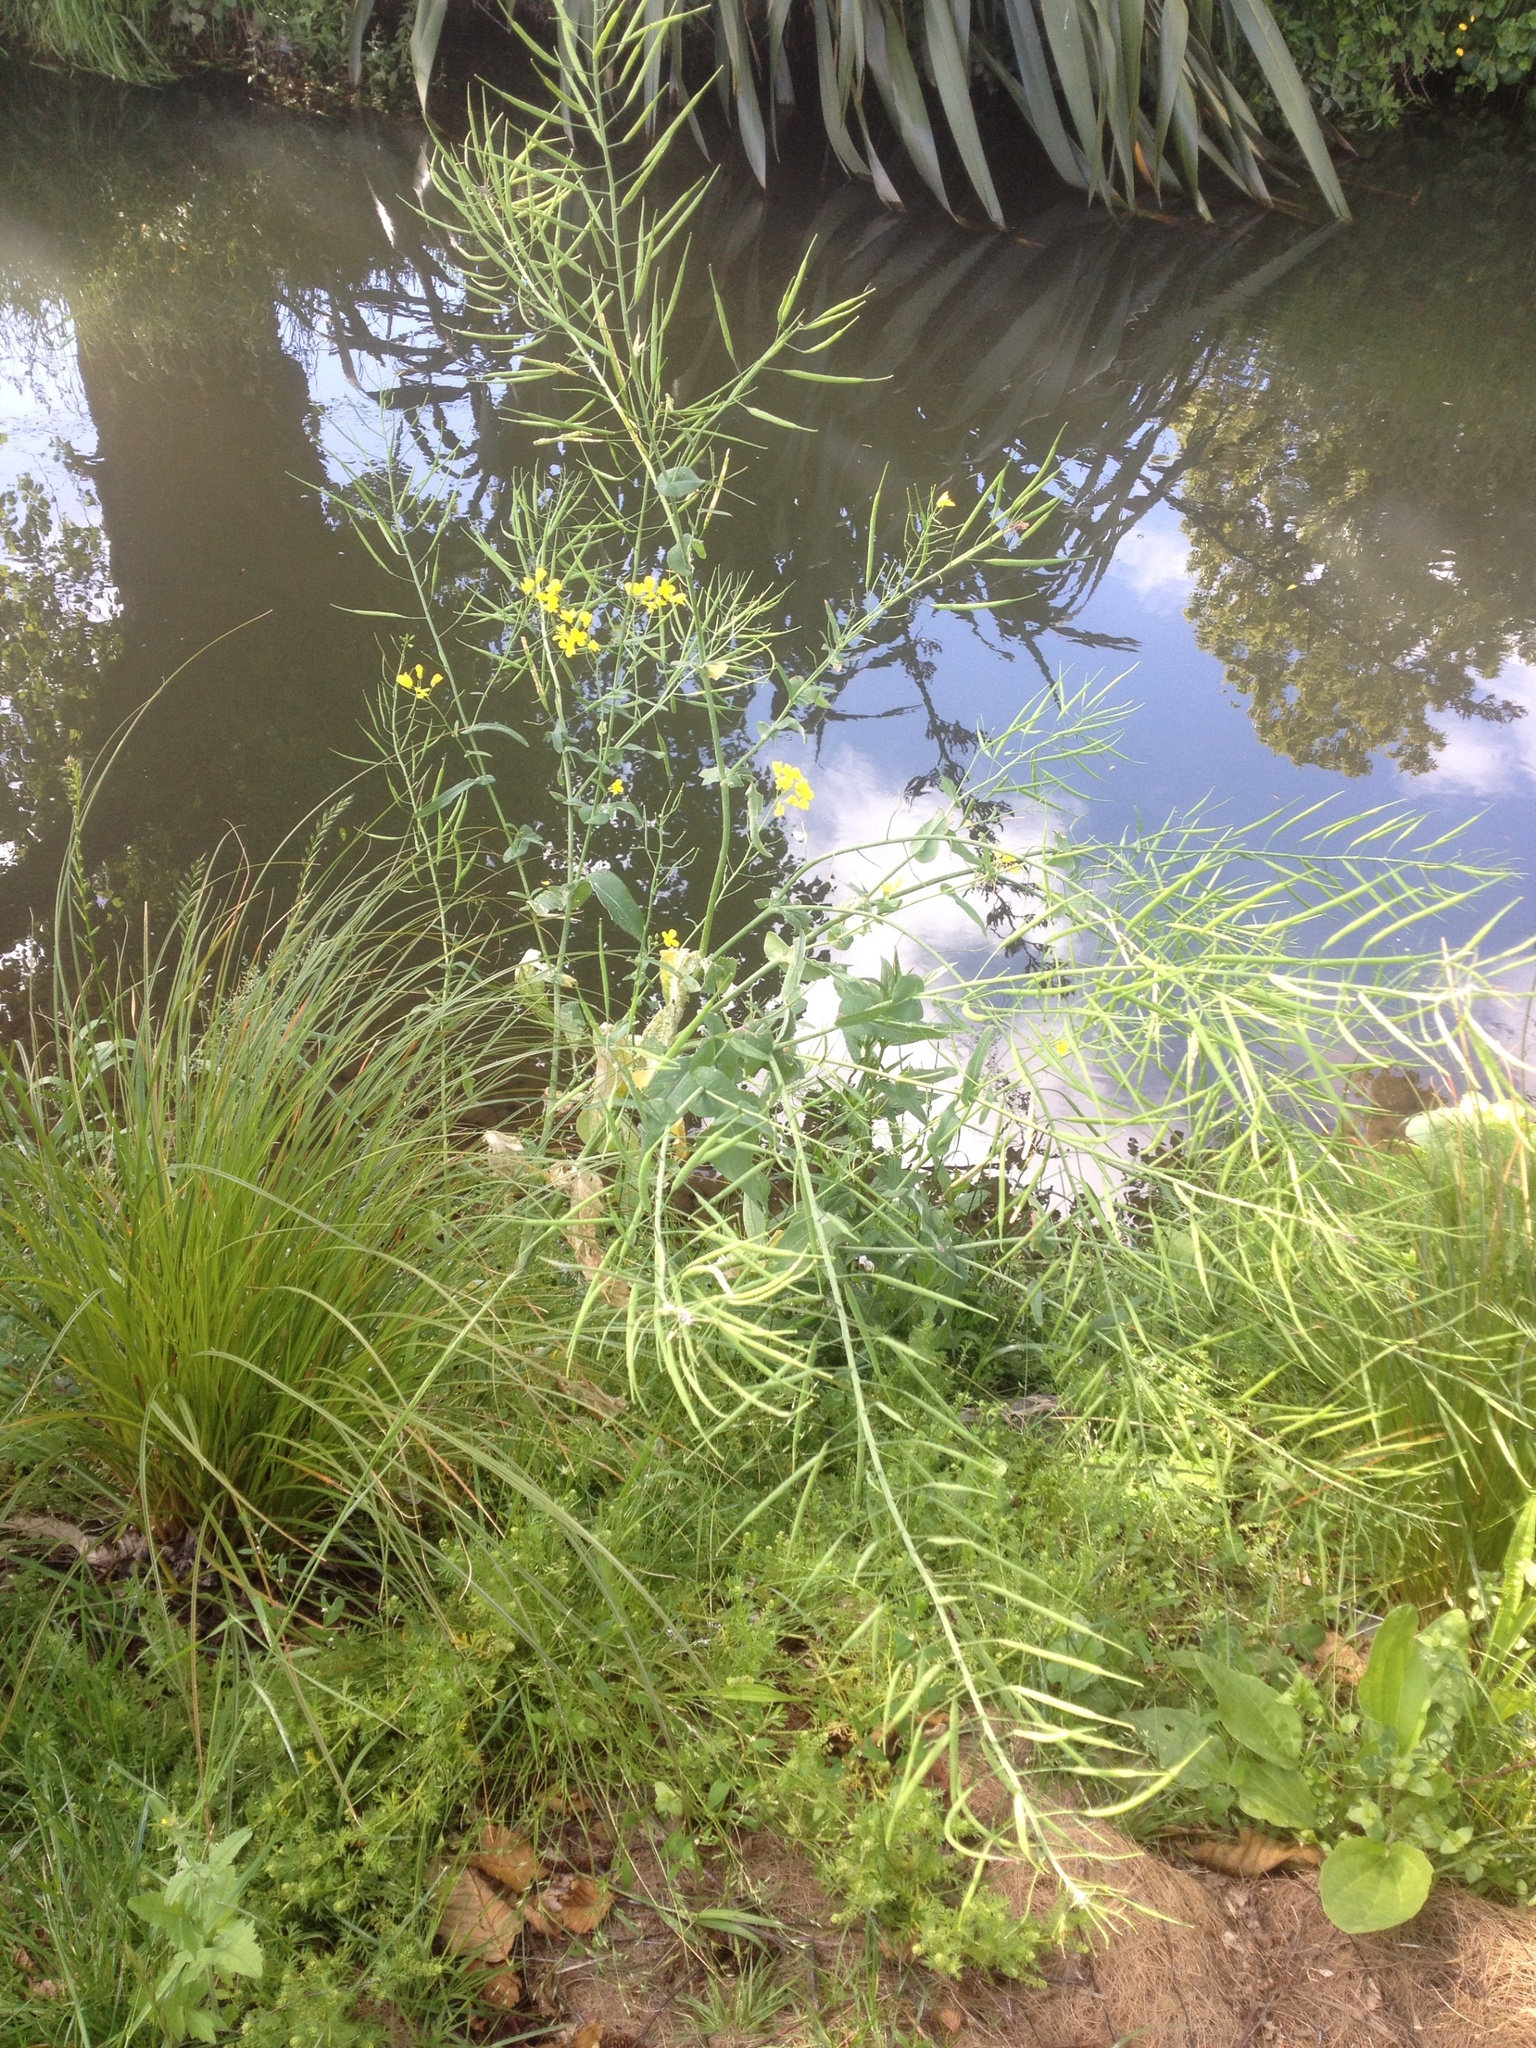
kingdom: Plantae
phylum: Tracheophyta
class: Magnoliopsida
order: Brassicales
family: Brassicaceae
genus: Brassica
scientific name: Brassica rapa
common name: Field mustard
